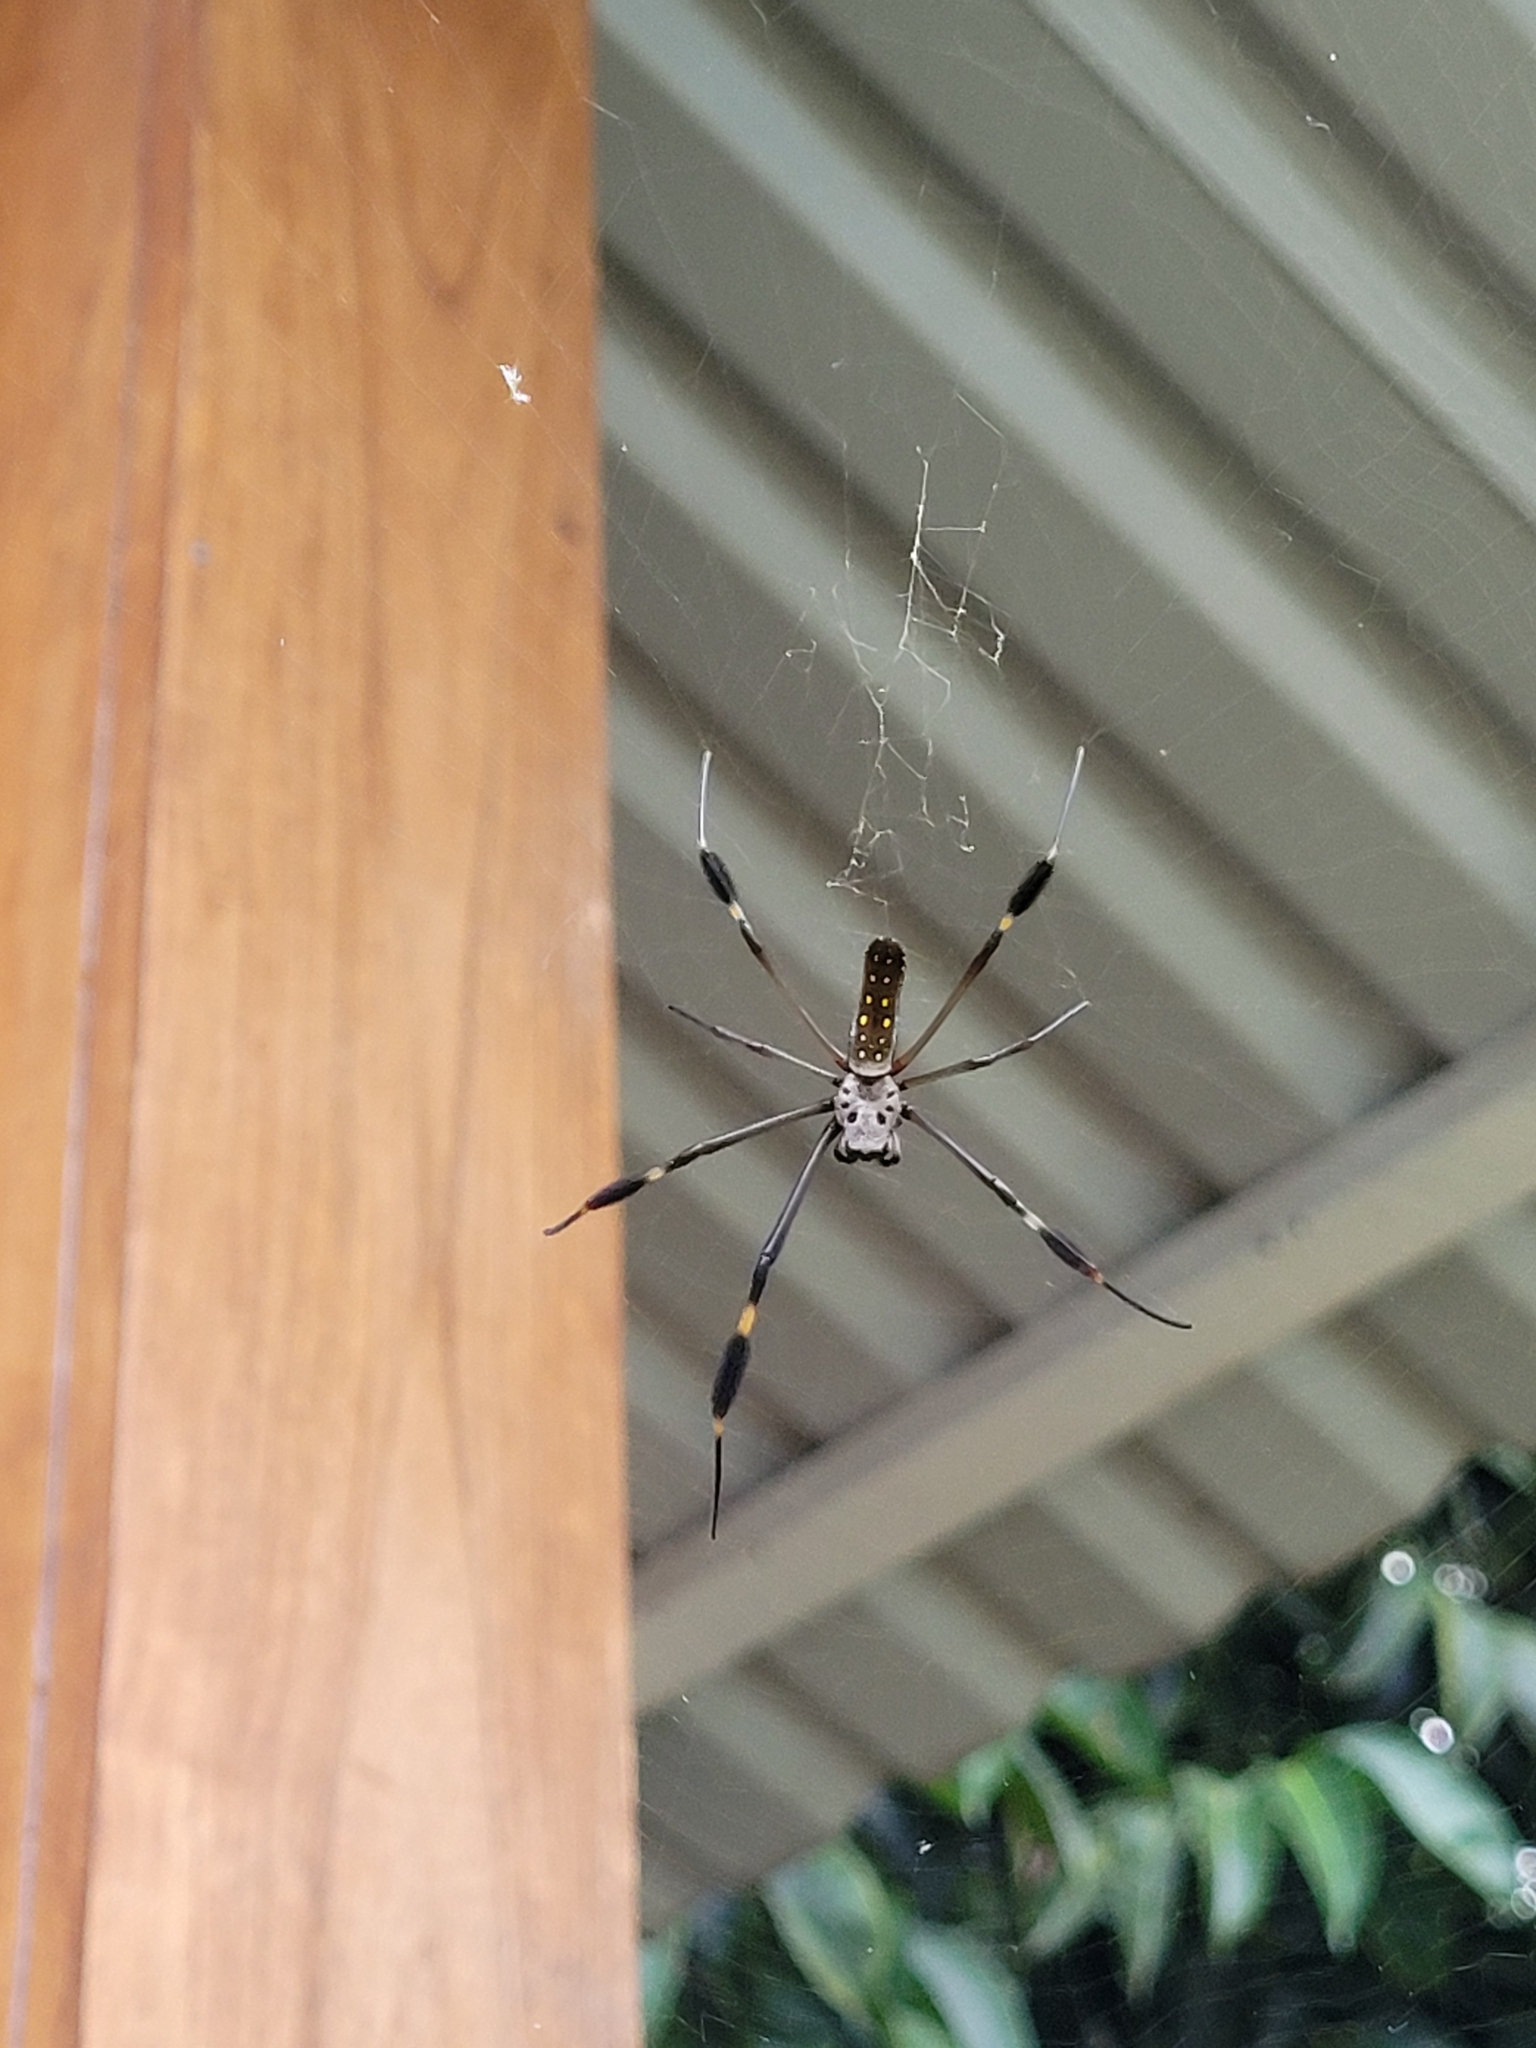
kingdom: Animalia
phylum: Arthropoda
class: Arachnida
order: Araneae
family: Araneidae
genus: Trichonephila
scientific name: Trichonephila clavipes
